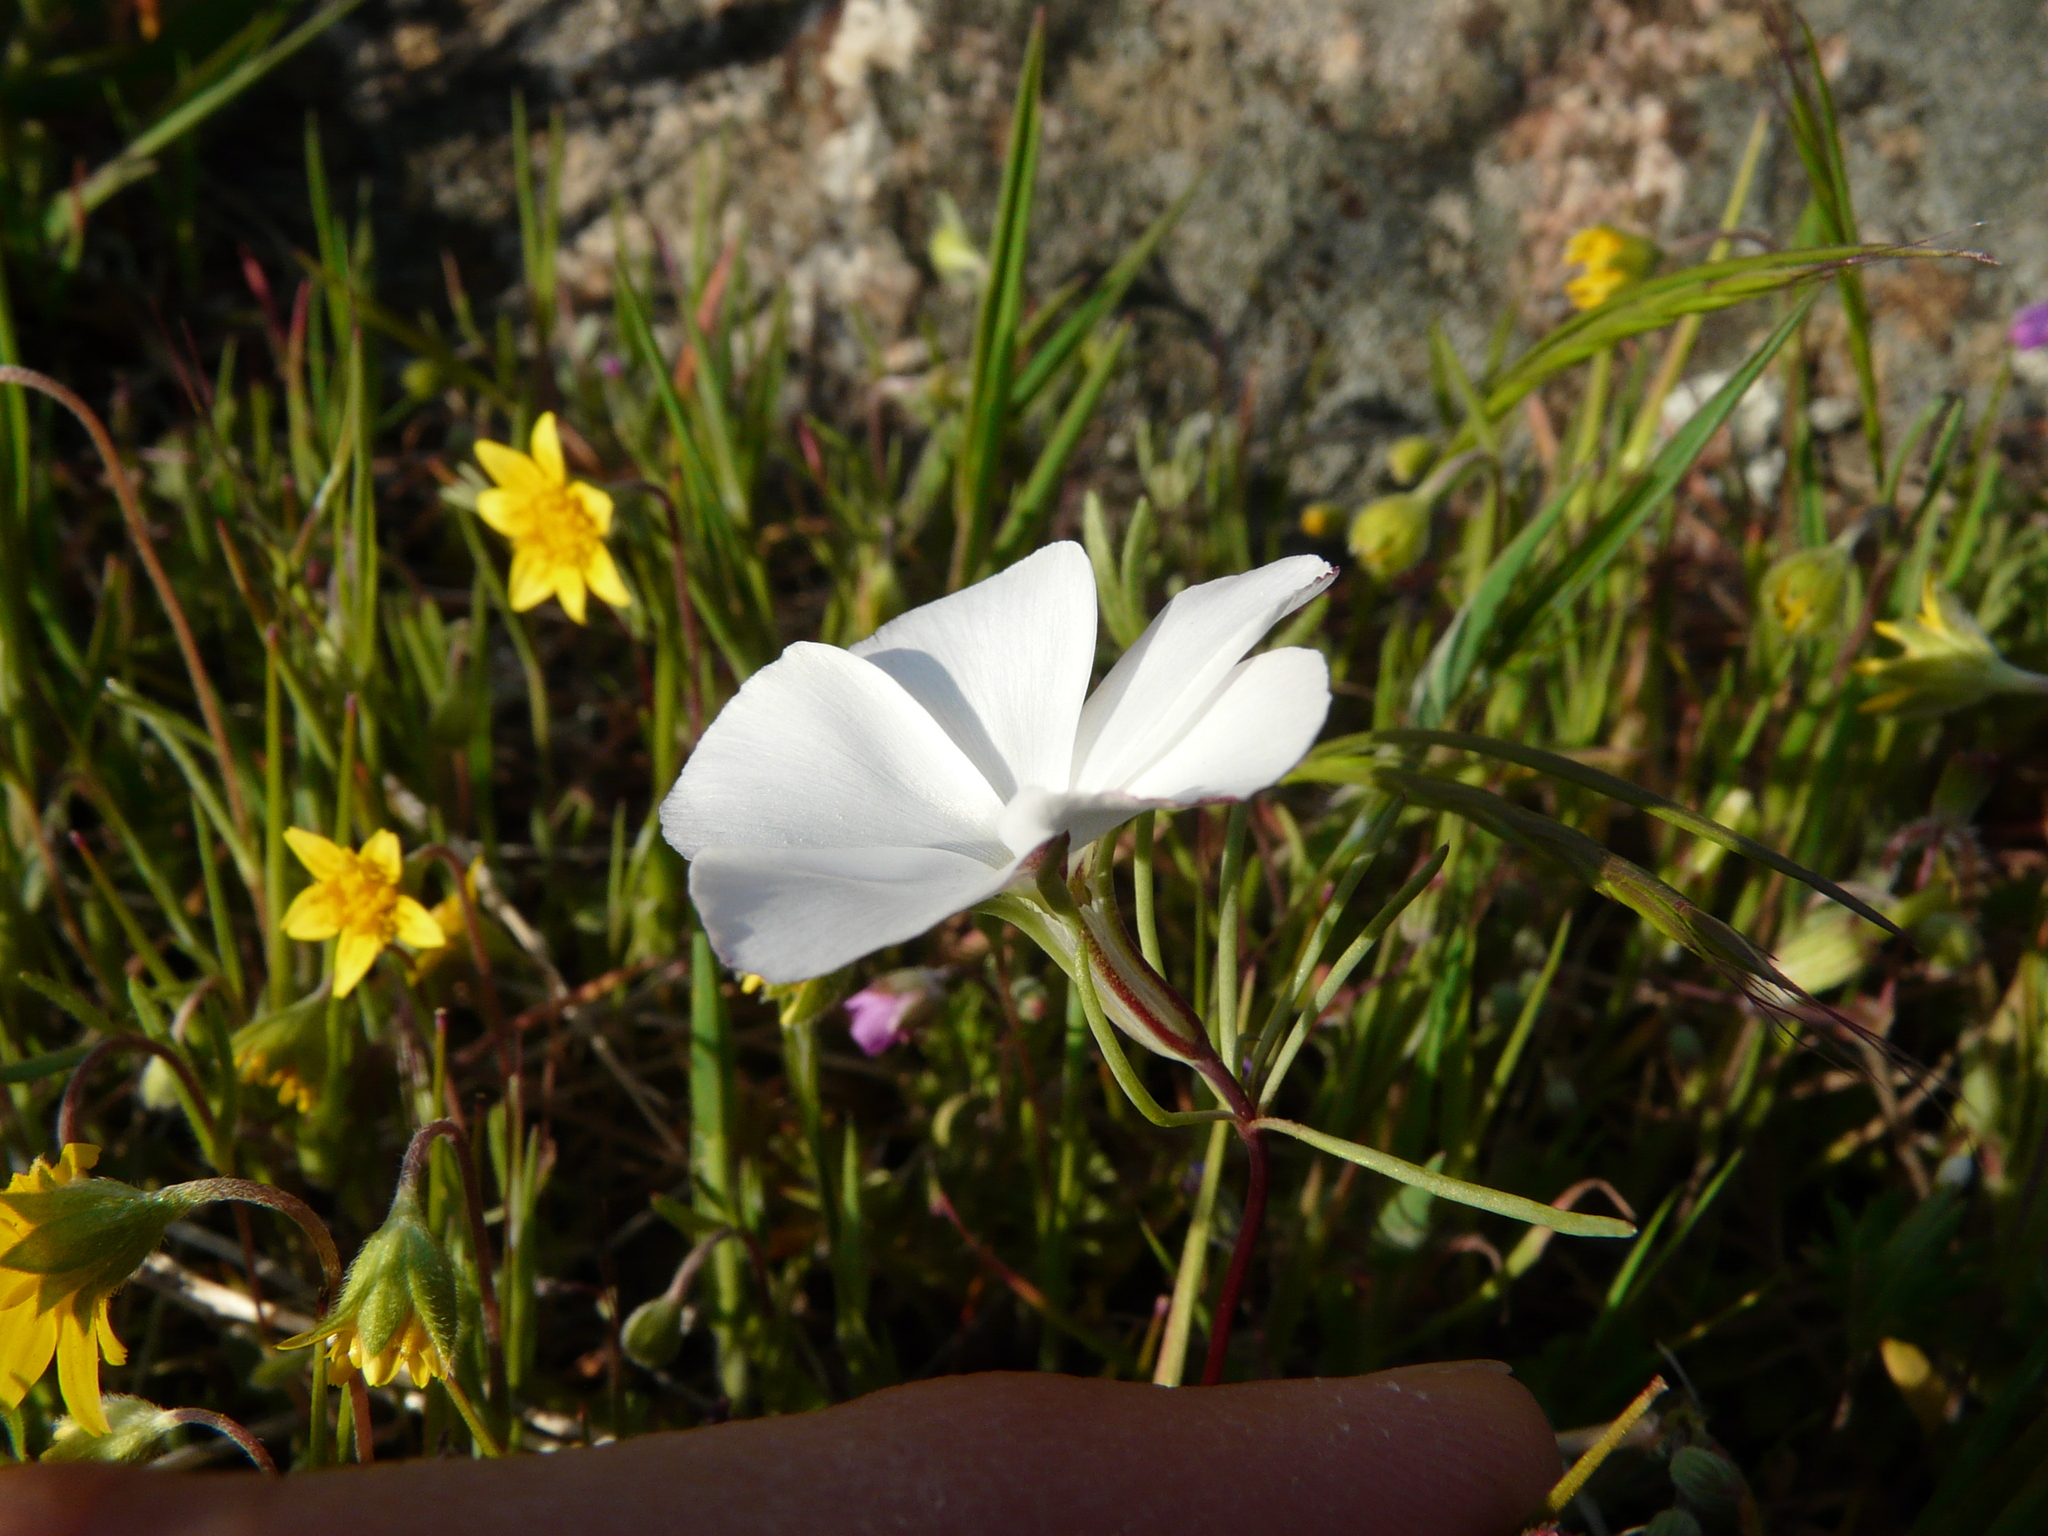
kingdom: Plantae
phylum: Tracheophyta
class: Magnoliopsida
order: Ericales
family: Polemoniaceae
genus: Linanthus
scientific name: Linanthus dichotomus
